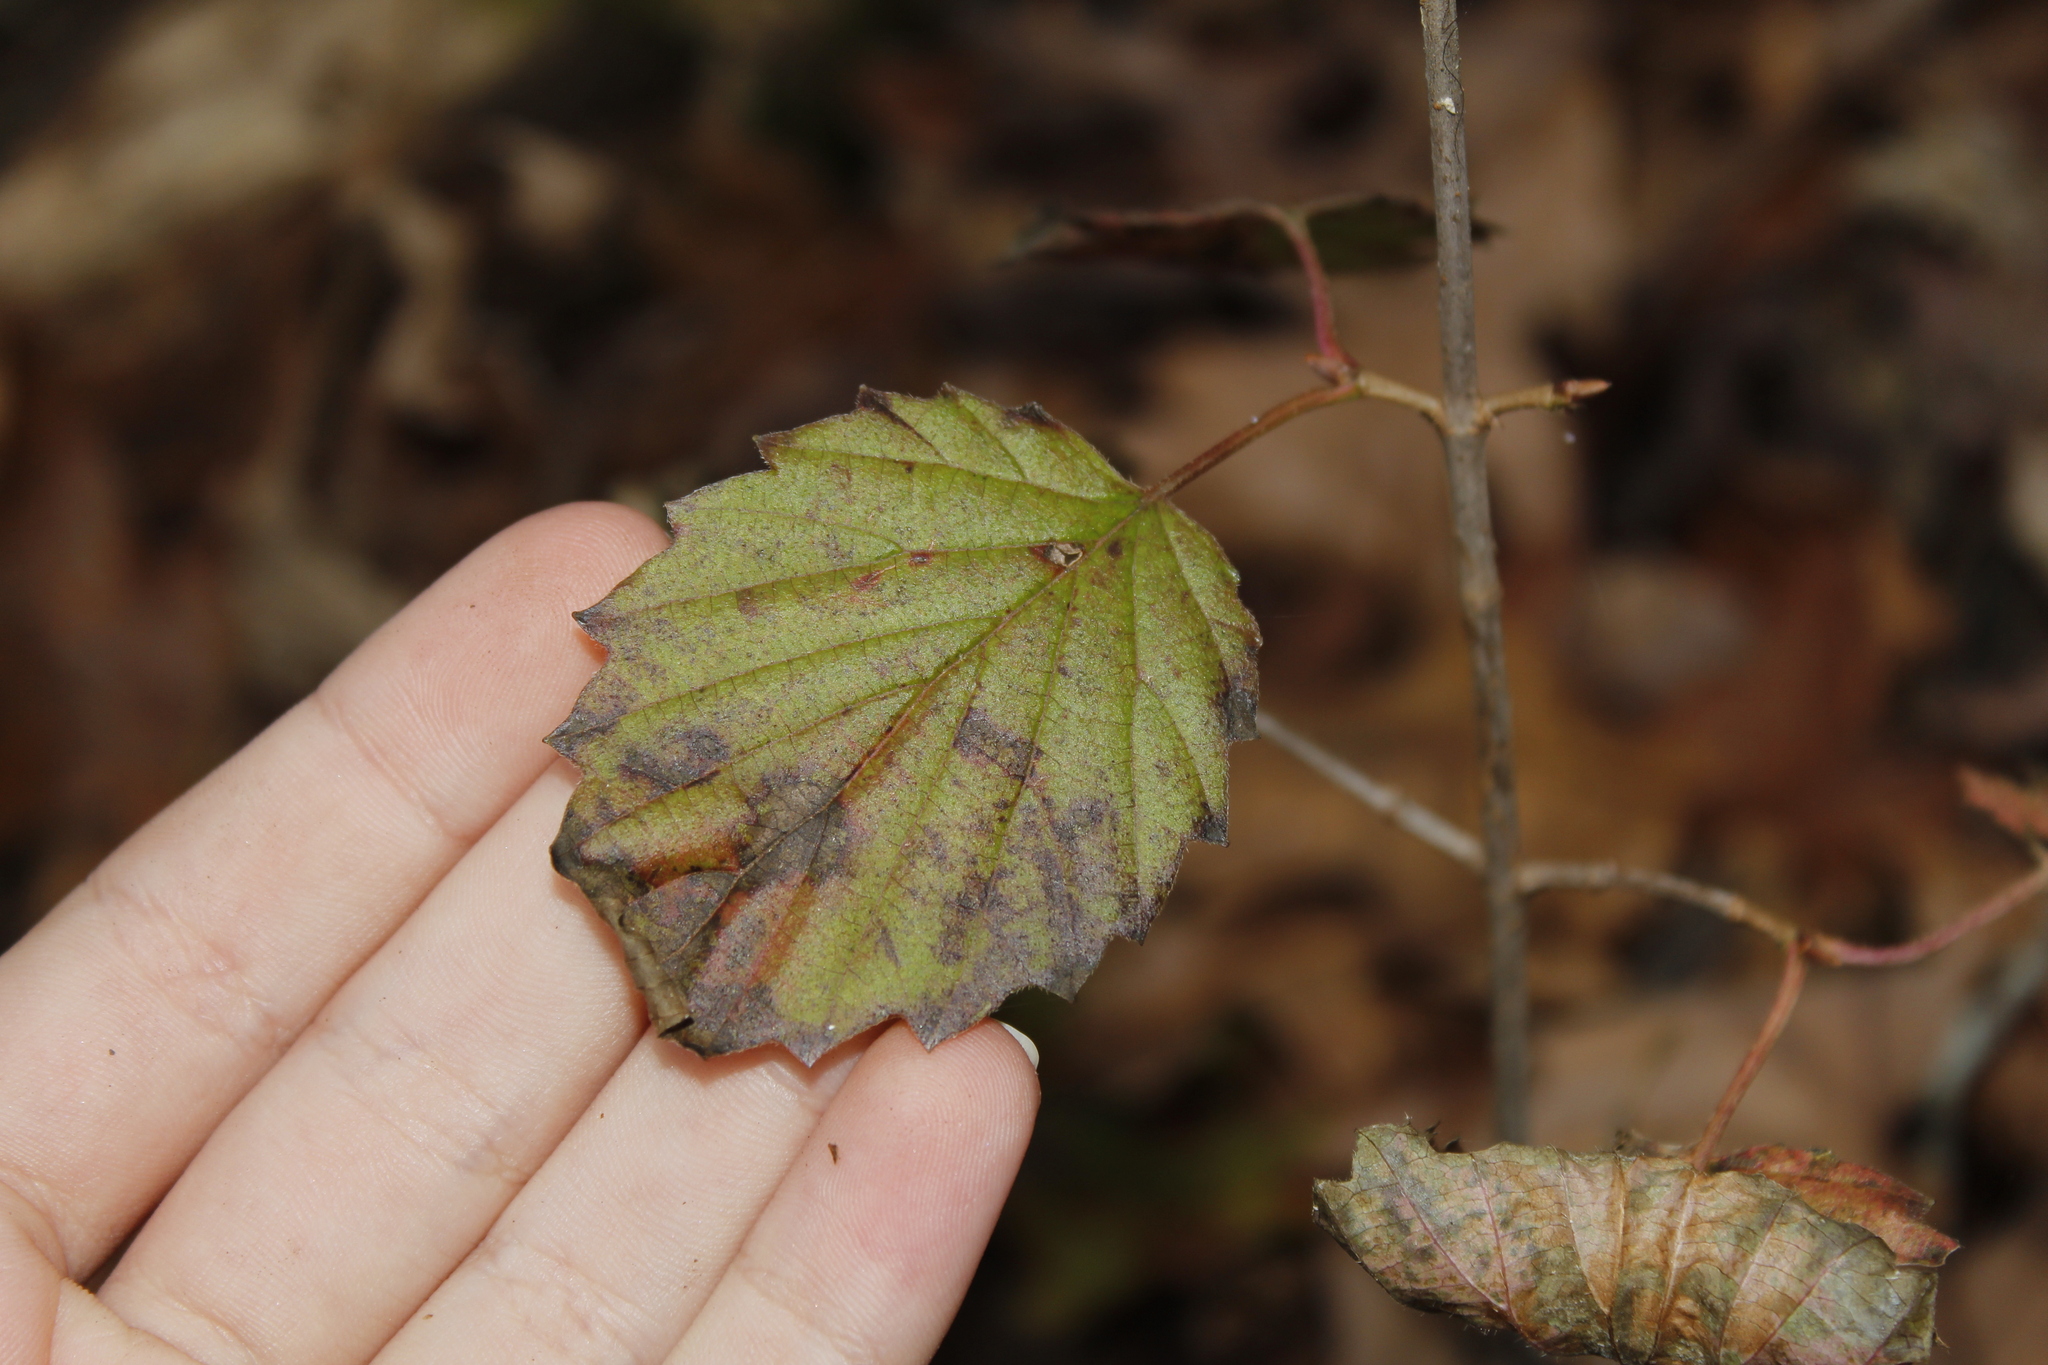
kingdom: Plantae
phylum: Tracheophyta
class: Magnoliopsida
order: Dipsacales
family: Viburnaceae
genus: Viburnum
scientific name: Viburnum acerifolium
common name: Dockmackie
